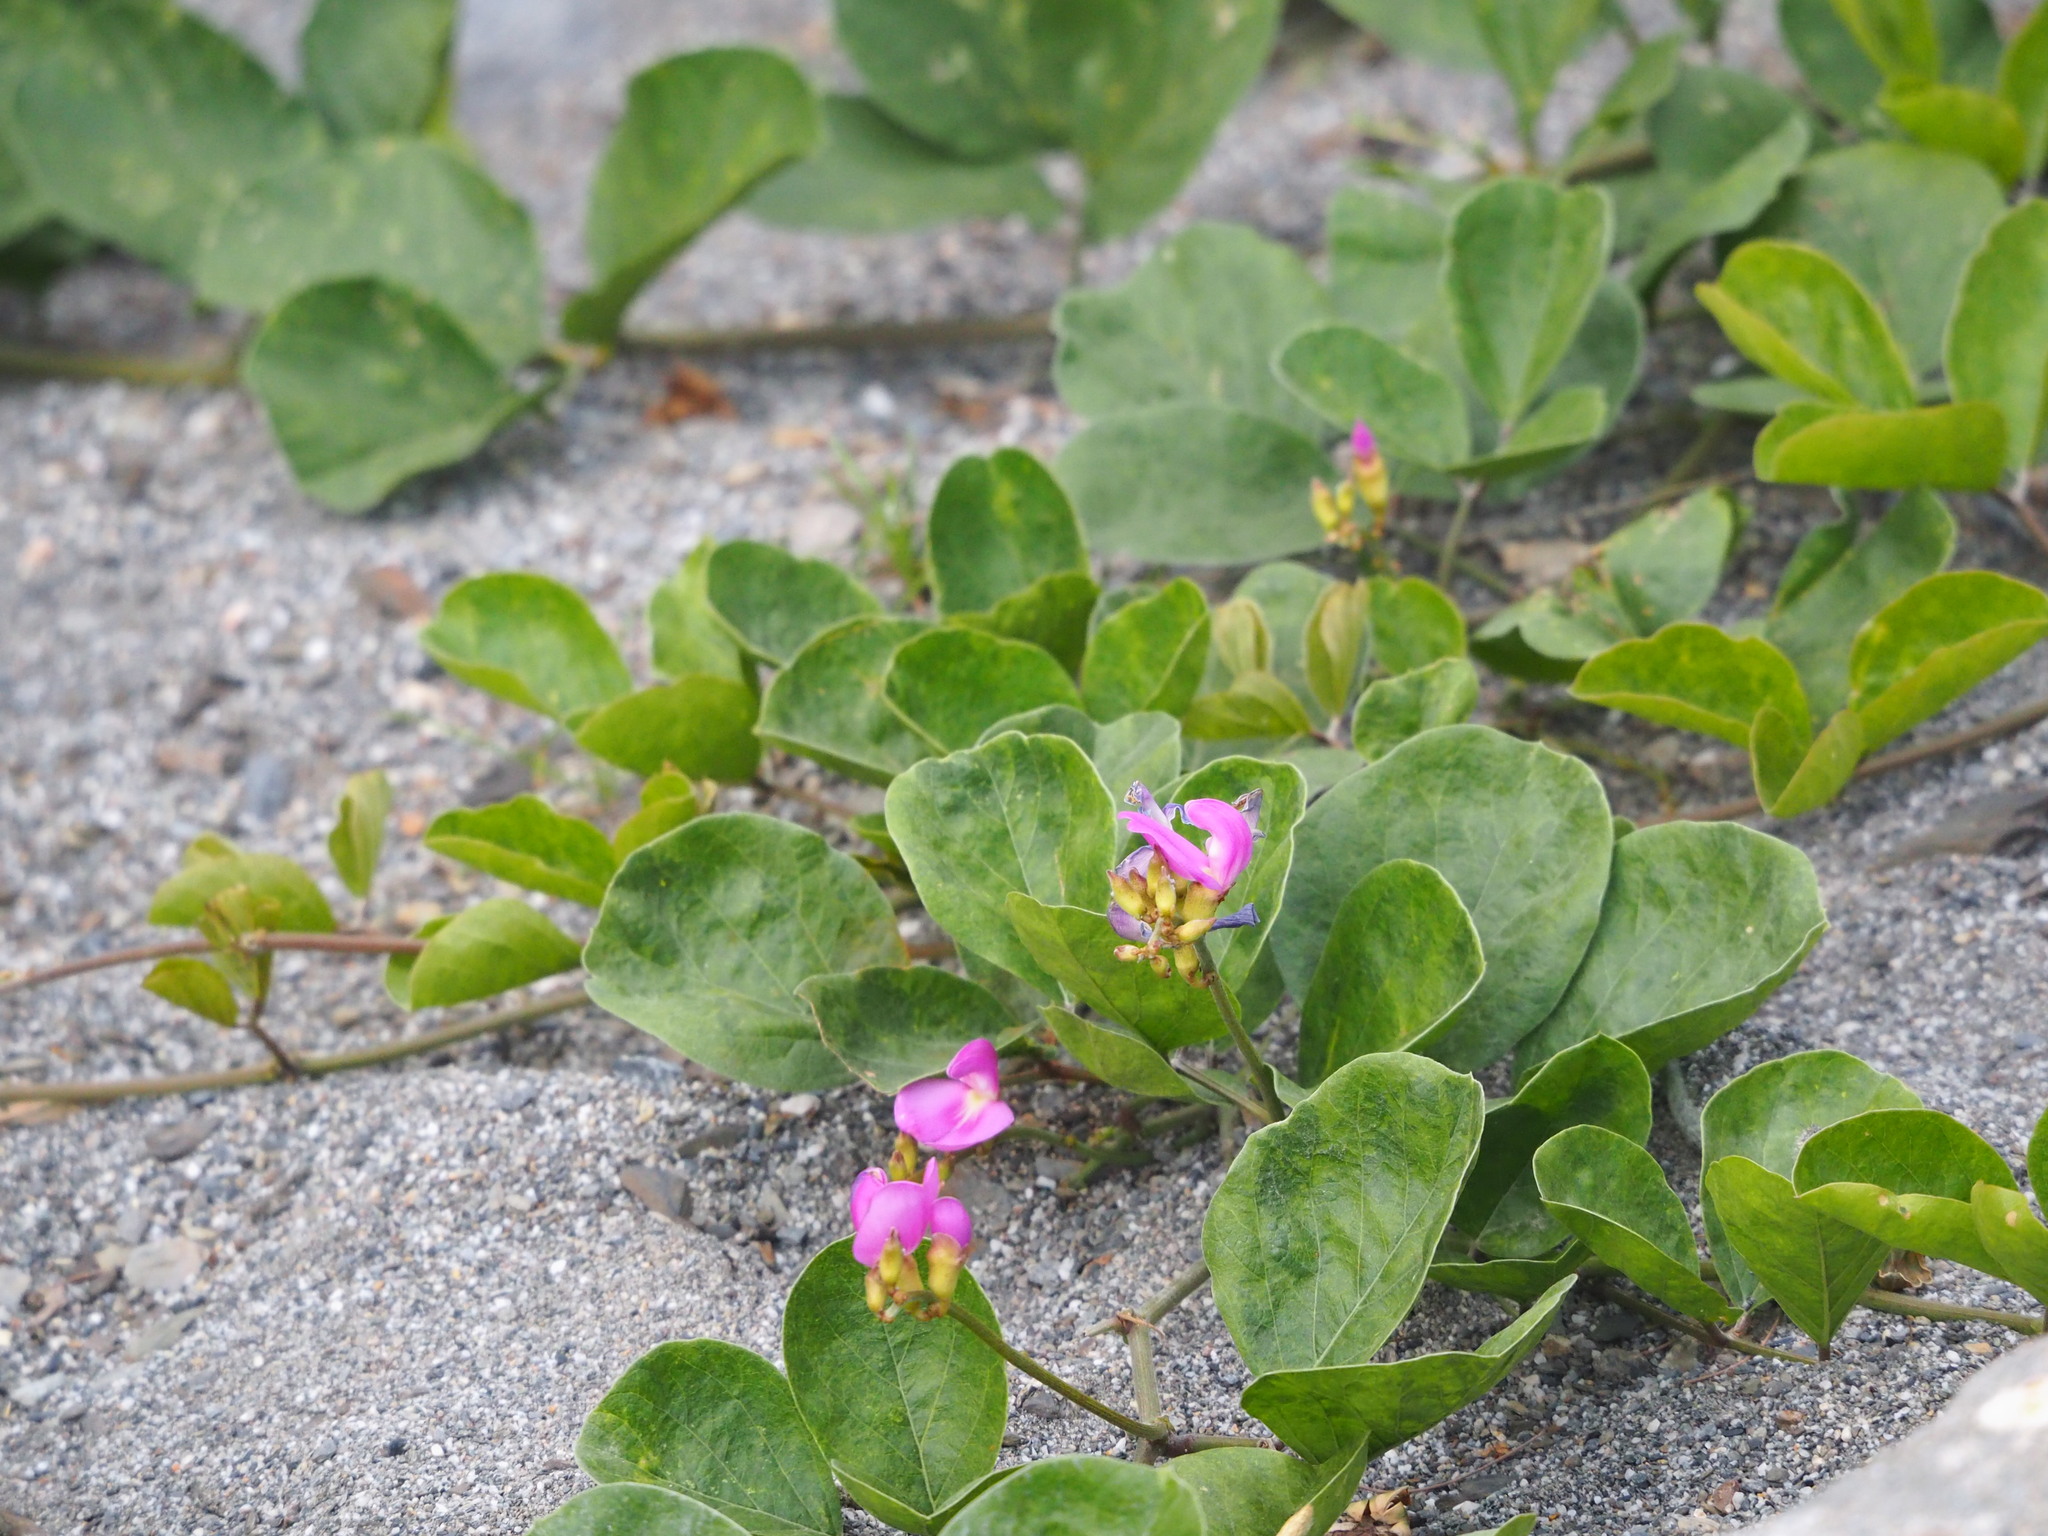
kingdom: Plantae
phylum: Tracheophyta
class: Magnoliopsida
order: Fabales
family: Fabaceae
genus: Canavalia
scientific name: Canavalia rosea
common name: Beach-bean
